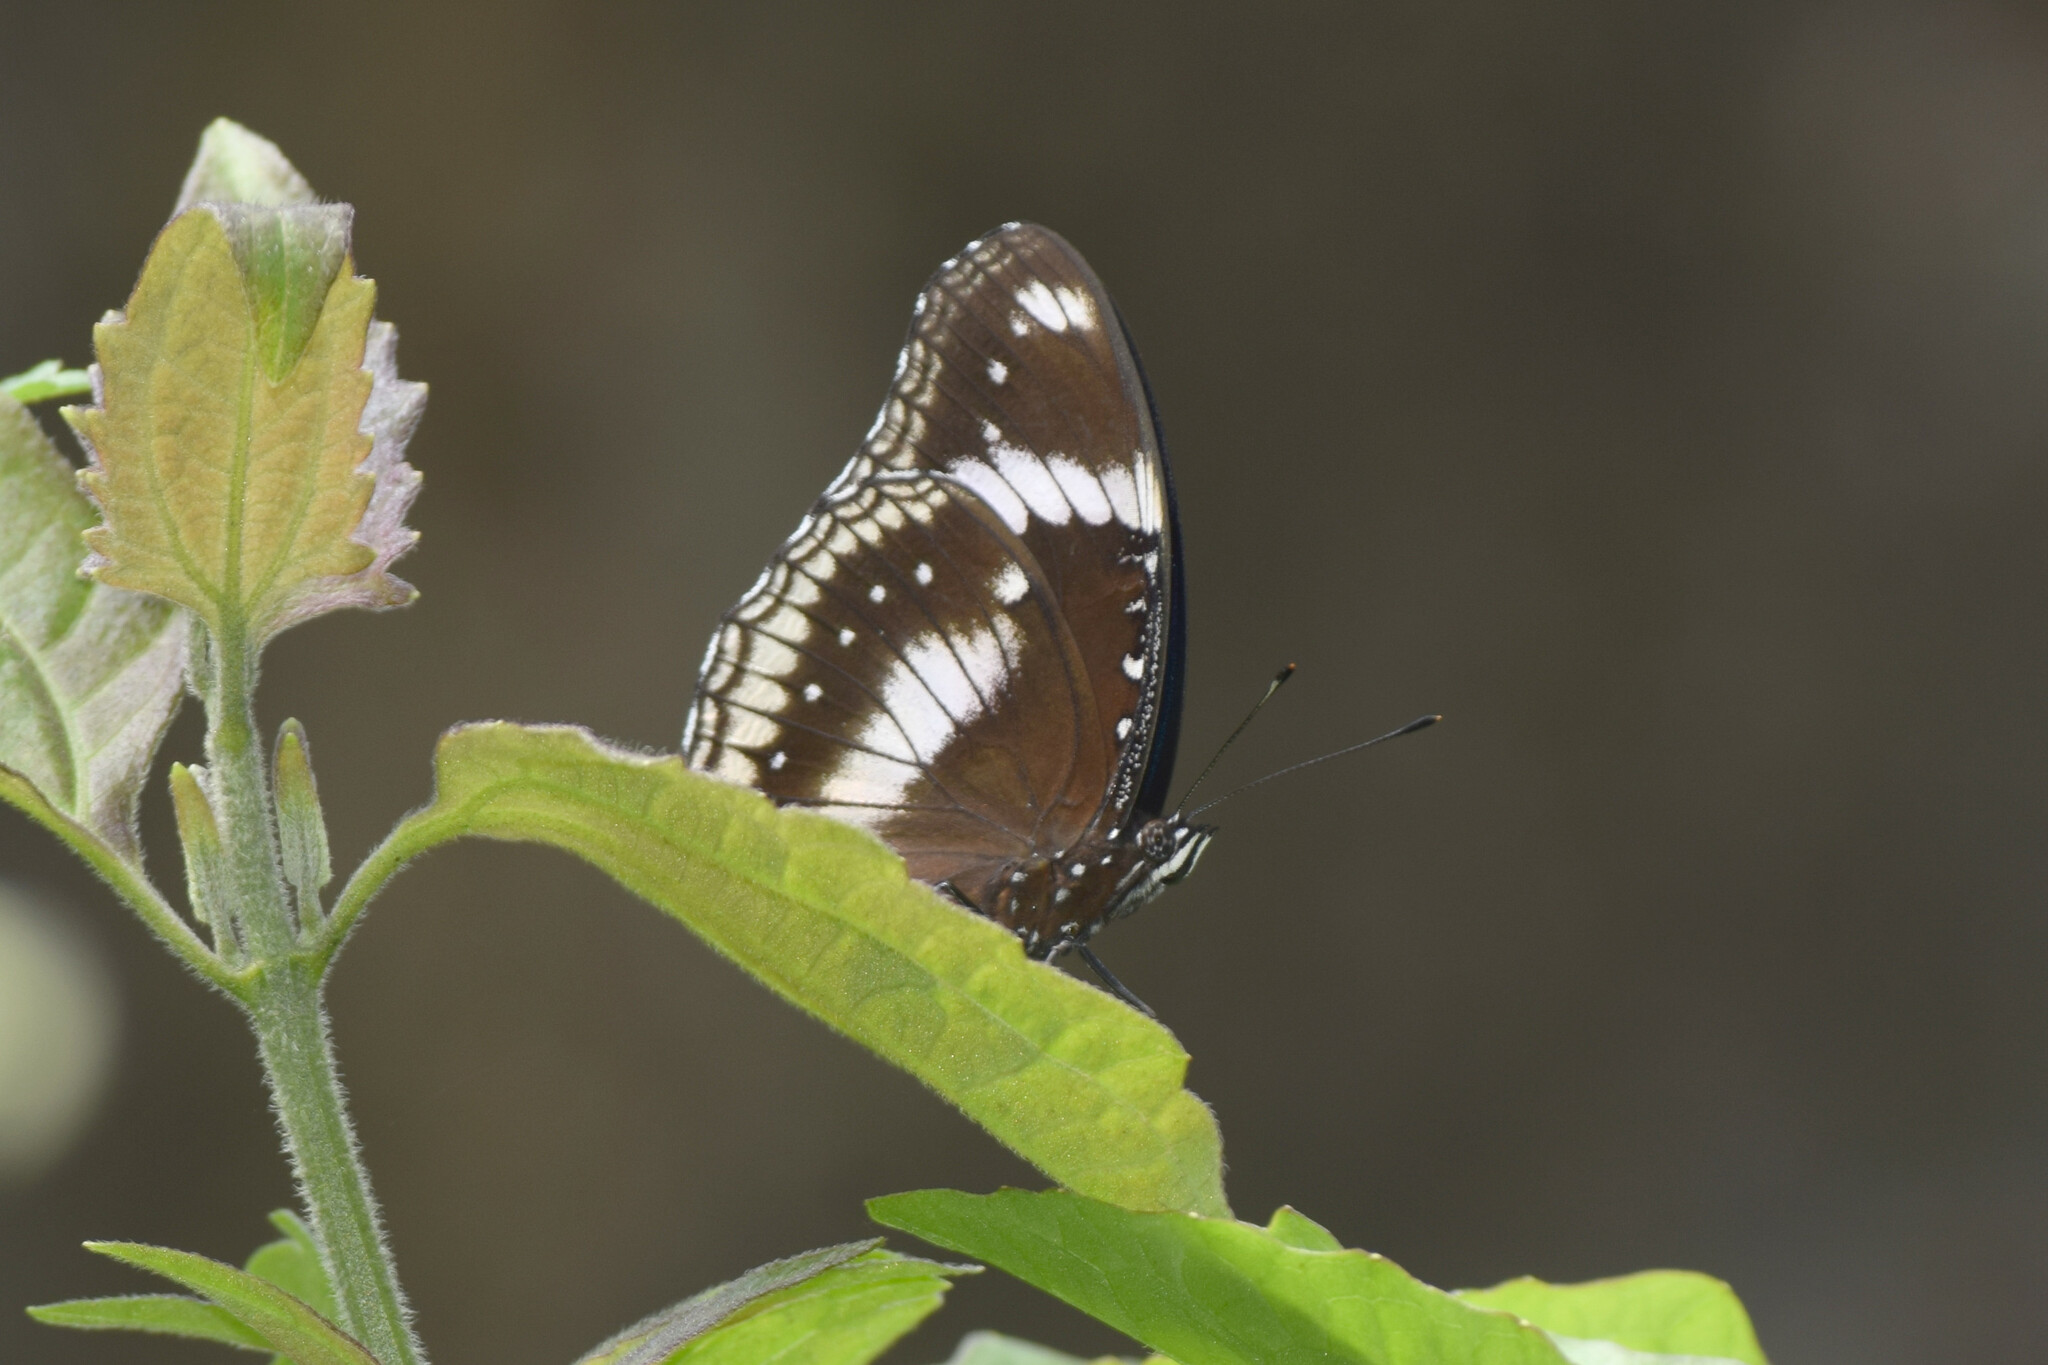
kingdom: Animalia
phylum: Arthropoda
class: Insecta
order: Lepidoptera
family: Nymphalidae
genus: Hypolimnas
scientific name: Hypolimnas bolina
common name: Great eggfly
